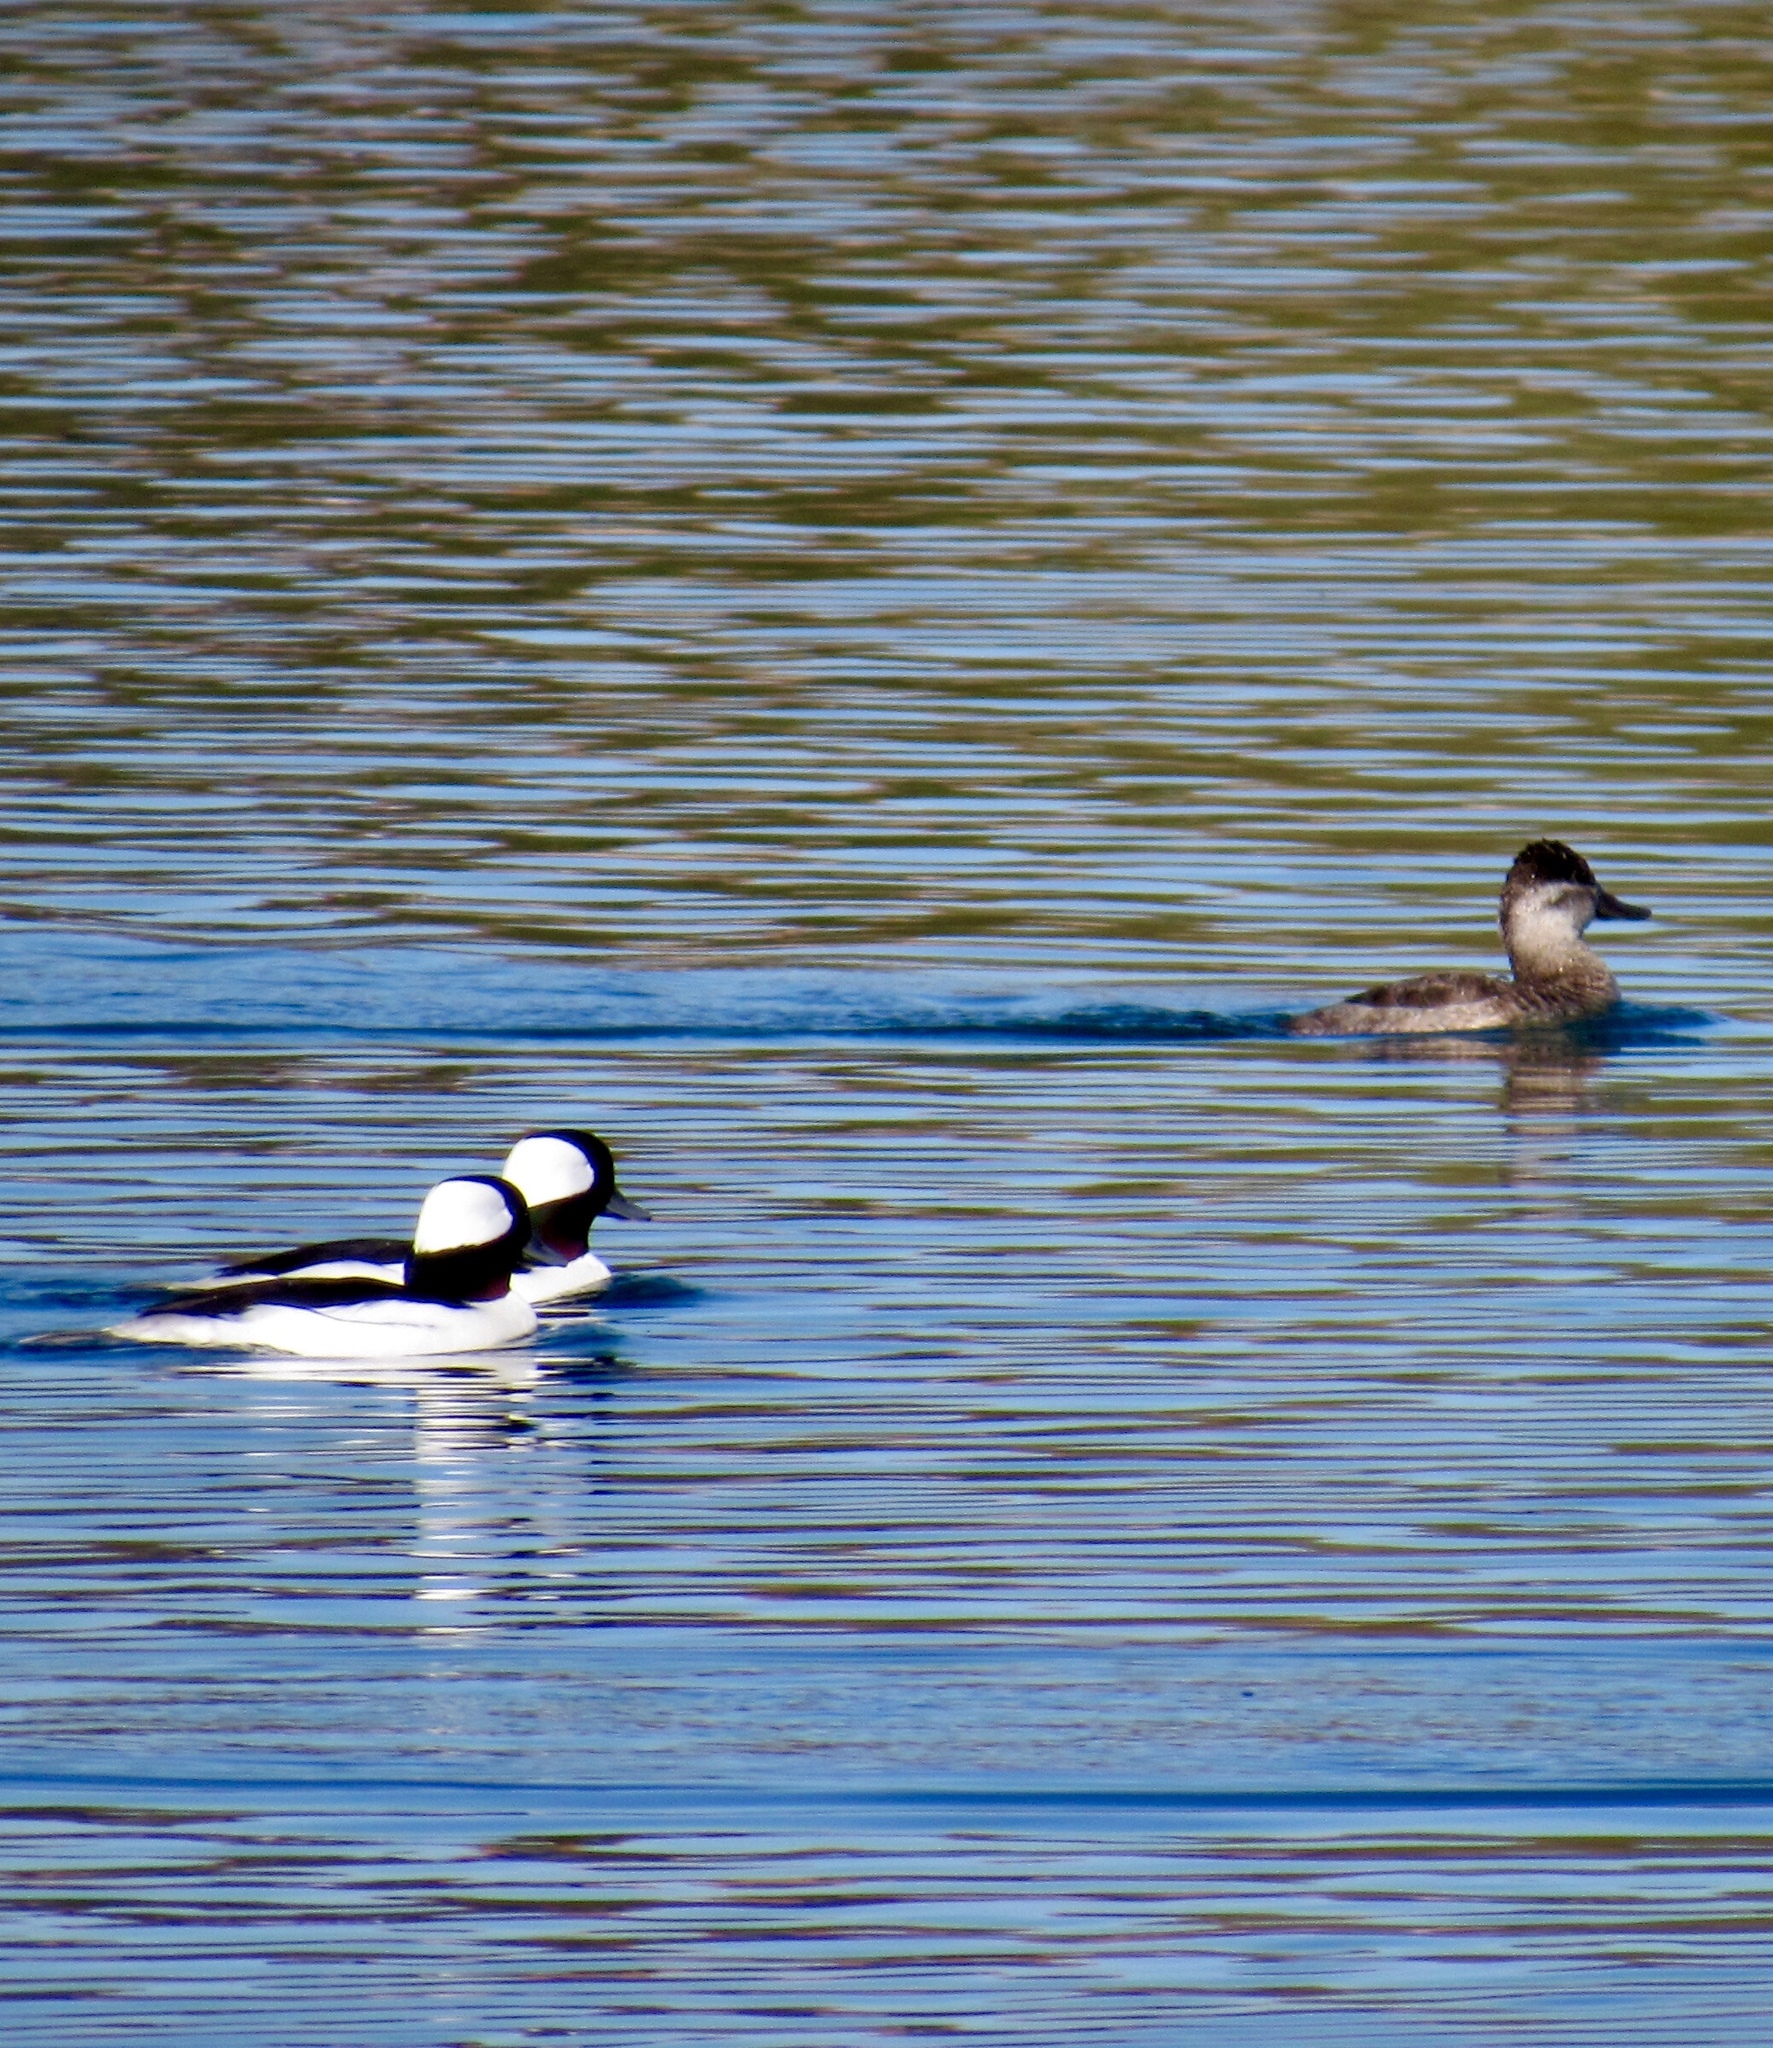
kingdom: Animalia
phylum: Chordata
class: Aves
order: Anseriformes
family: Anatidae
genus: Bucephala
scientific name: Bucephala albeola
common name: Bufflehead
